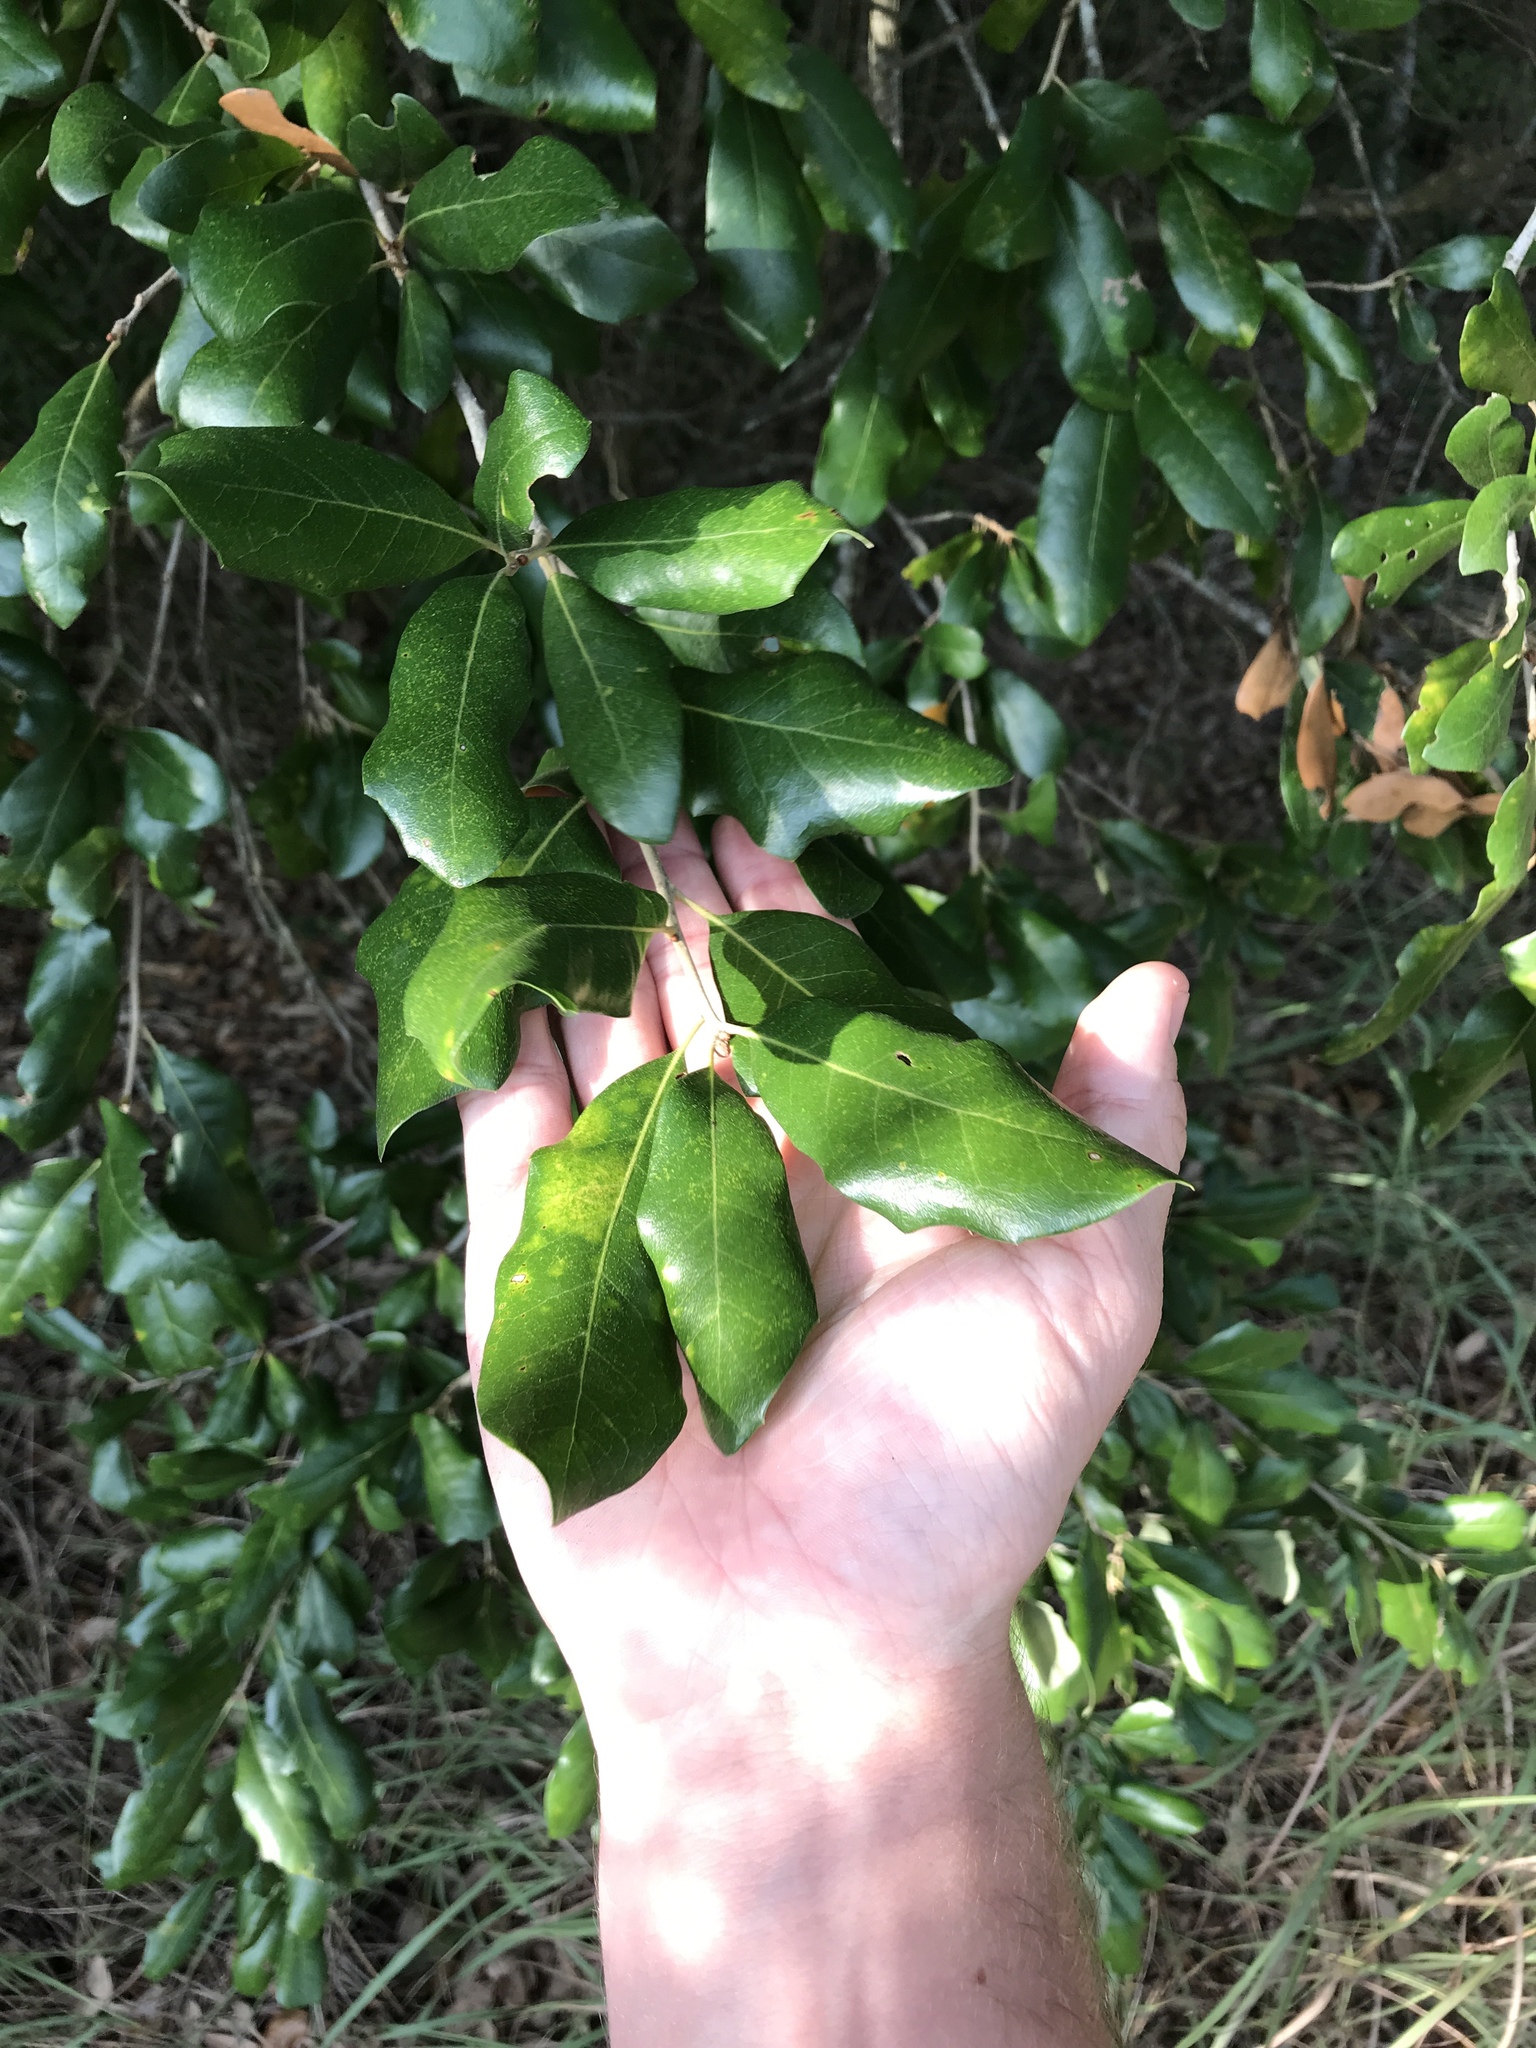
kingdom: Plantae
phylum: Tracheophyta
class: Magnoliopsida
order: Fagales
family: Fagaceae
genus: Quercus
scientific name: Quercus fusiformis
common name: Texas live oak
